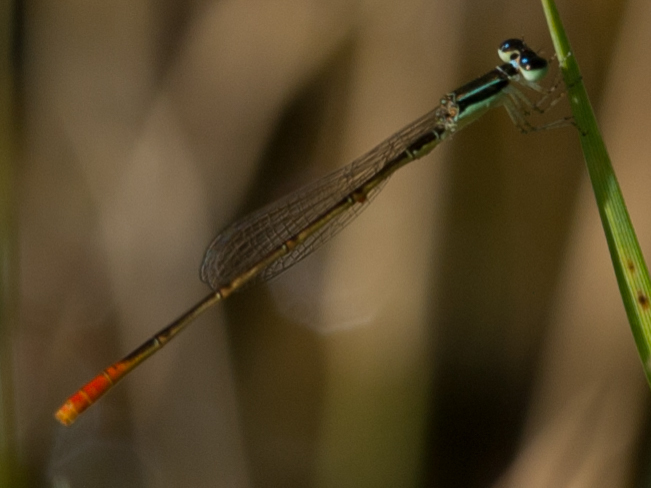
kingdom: Animalia
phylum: Arthropoda
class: Insecta
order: Odonata
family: Coenagrionidae
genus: Agriocnemis
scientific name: Agriocnemis exilis
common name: Little wisp
